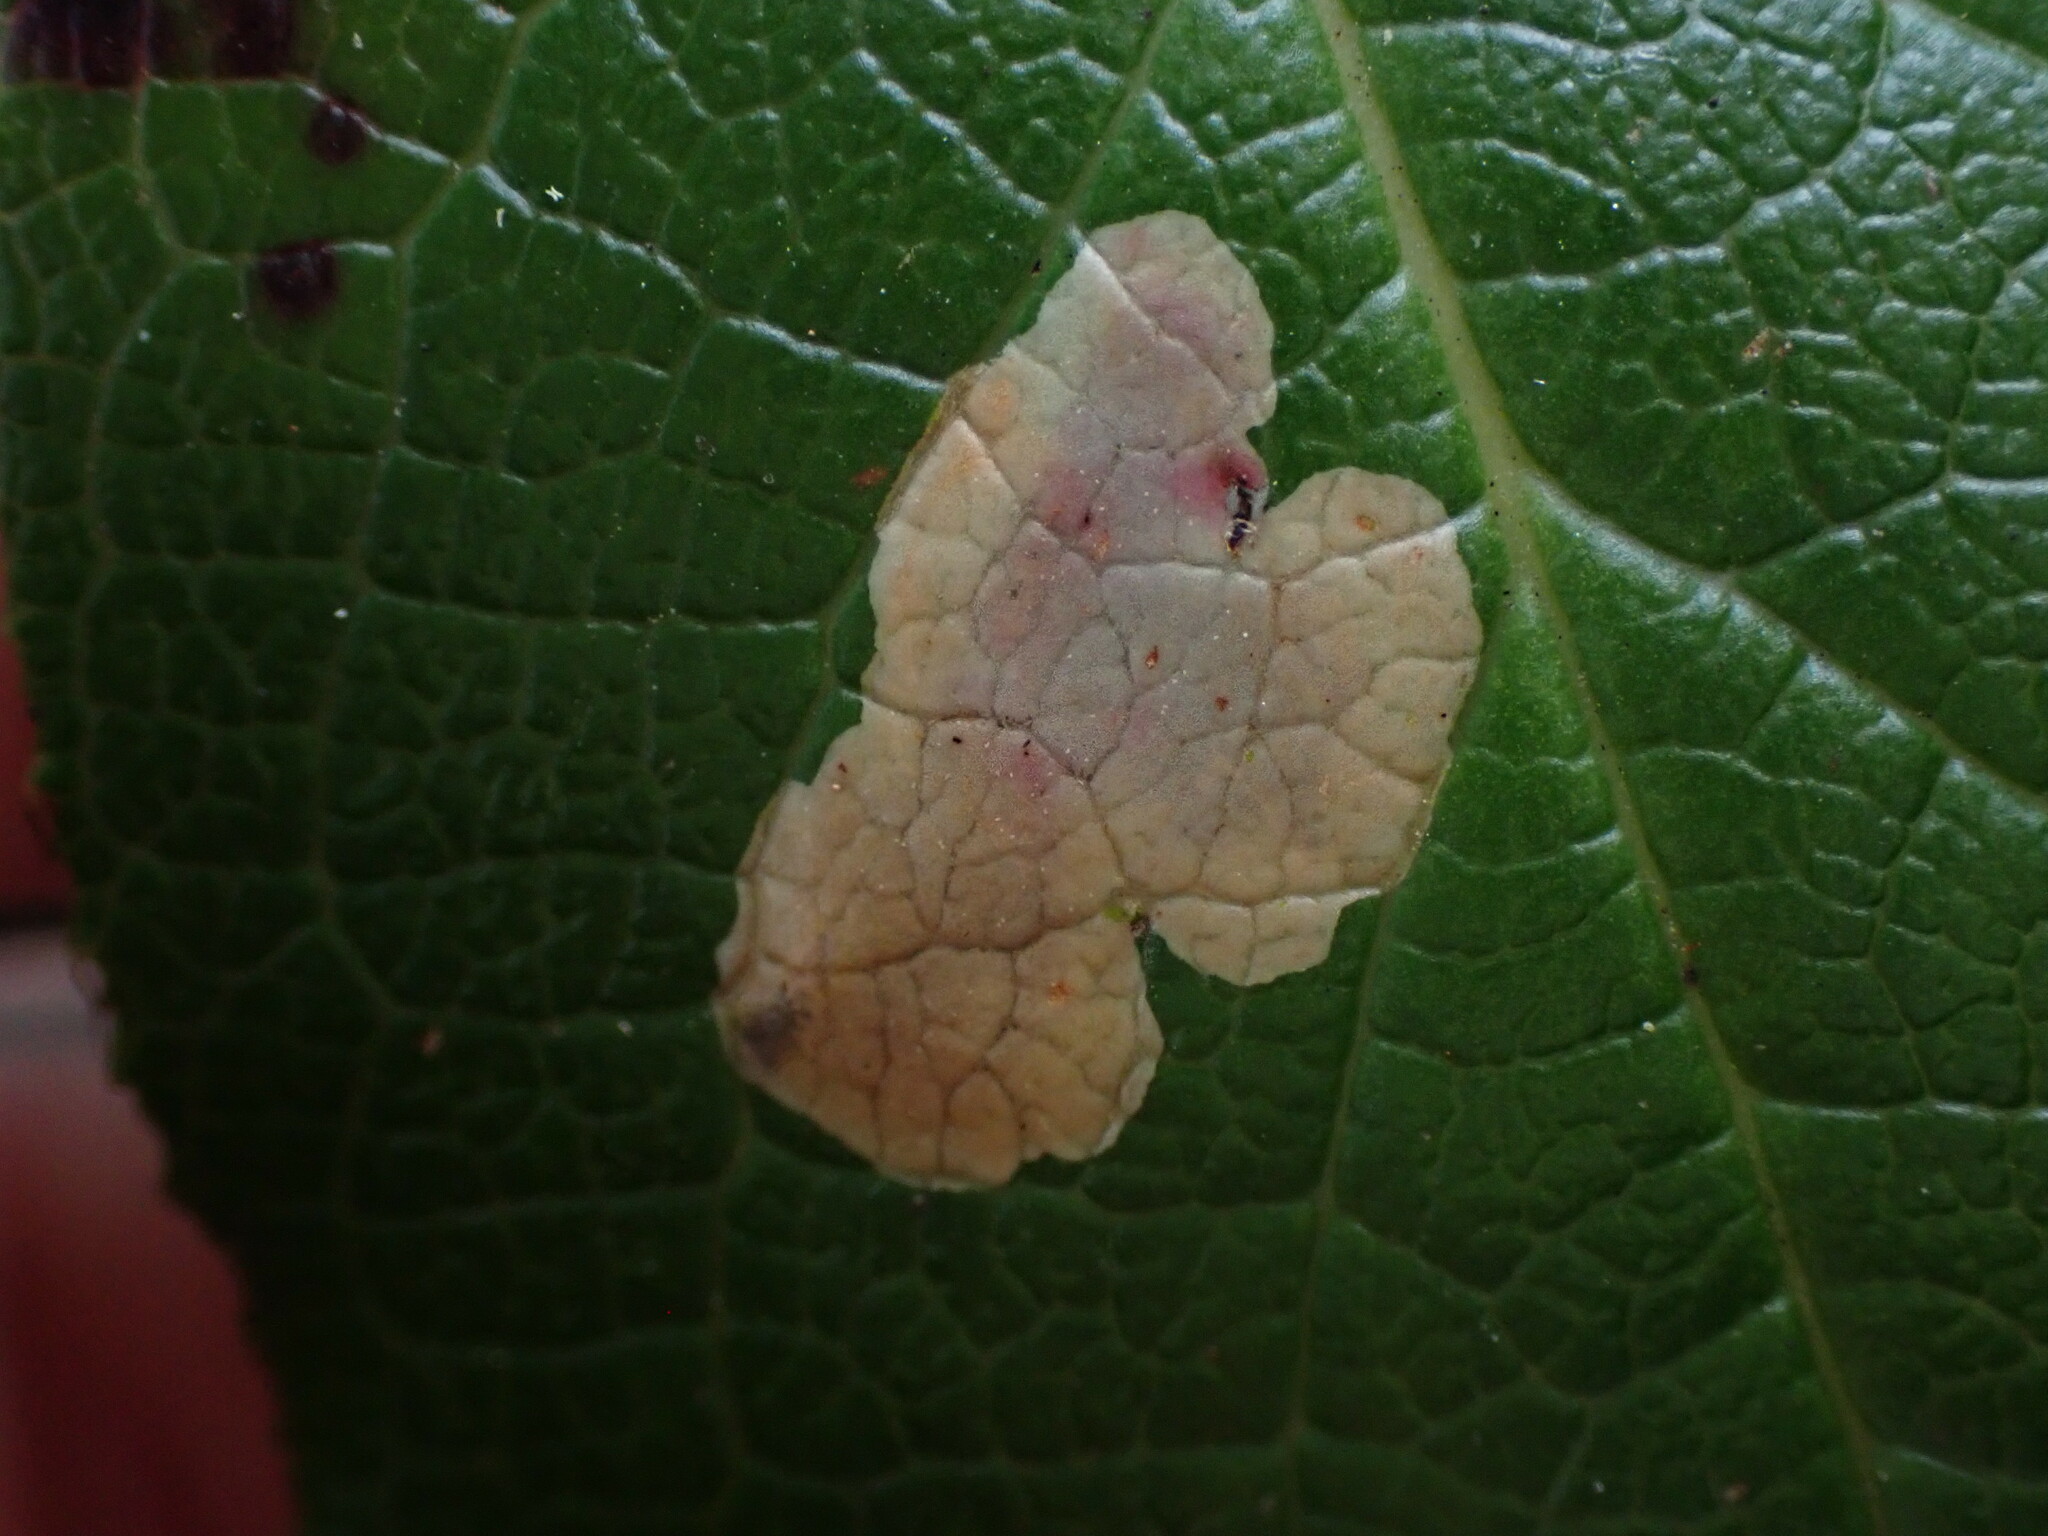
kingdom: Animalia
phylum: Arthropoda
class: Insecta
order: Lepidoptera
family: Gracillariidae
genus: Cameraria
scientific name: Cameraria gaultheriella
